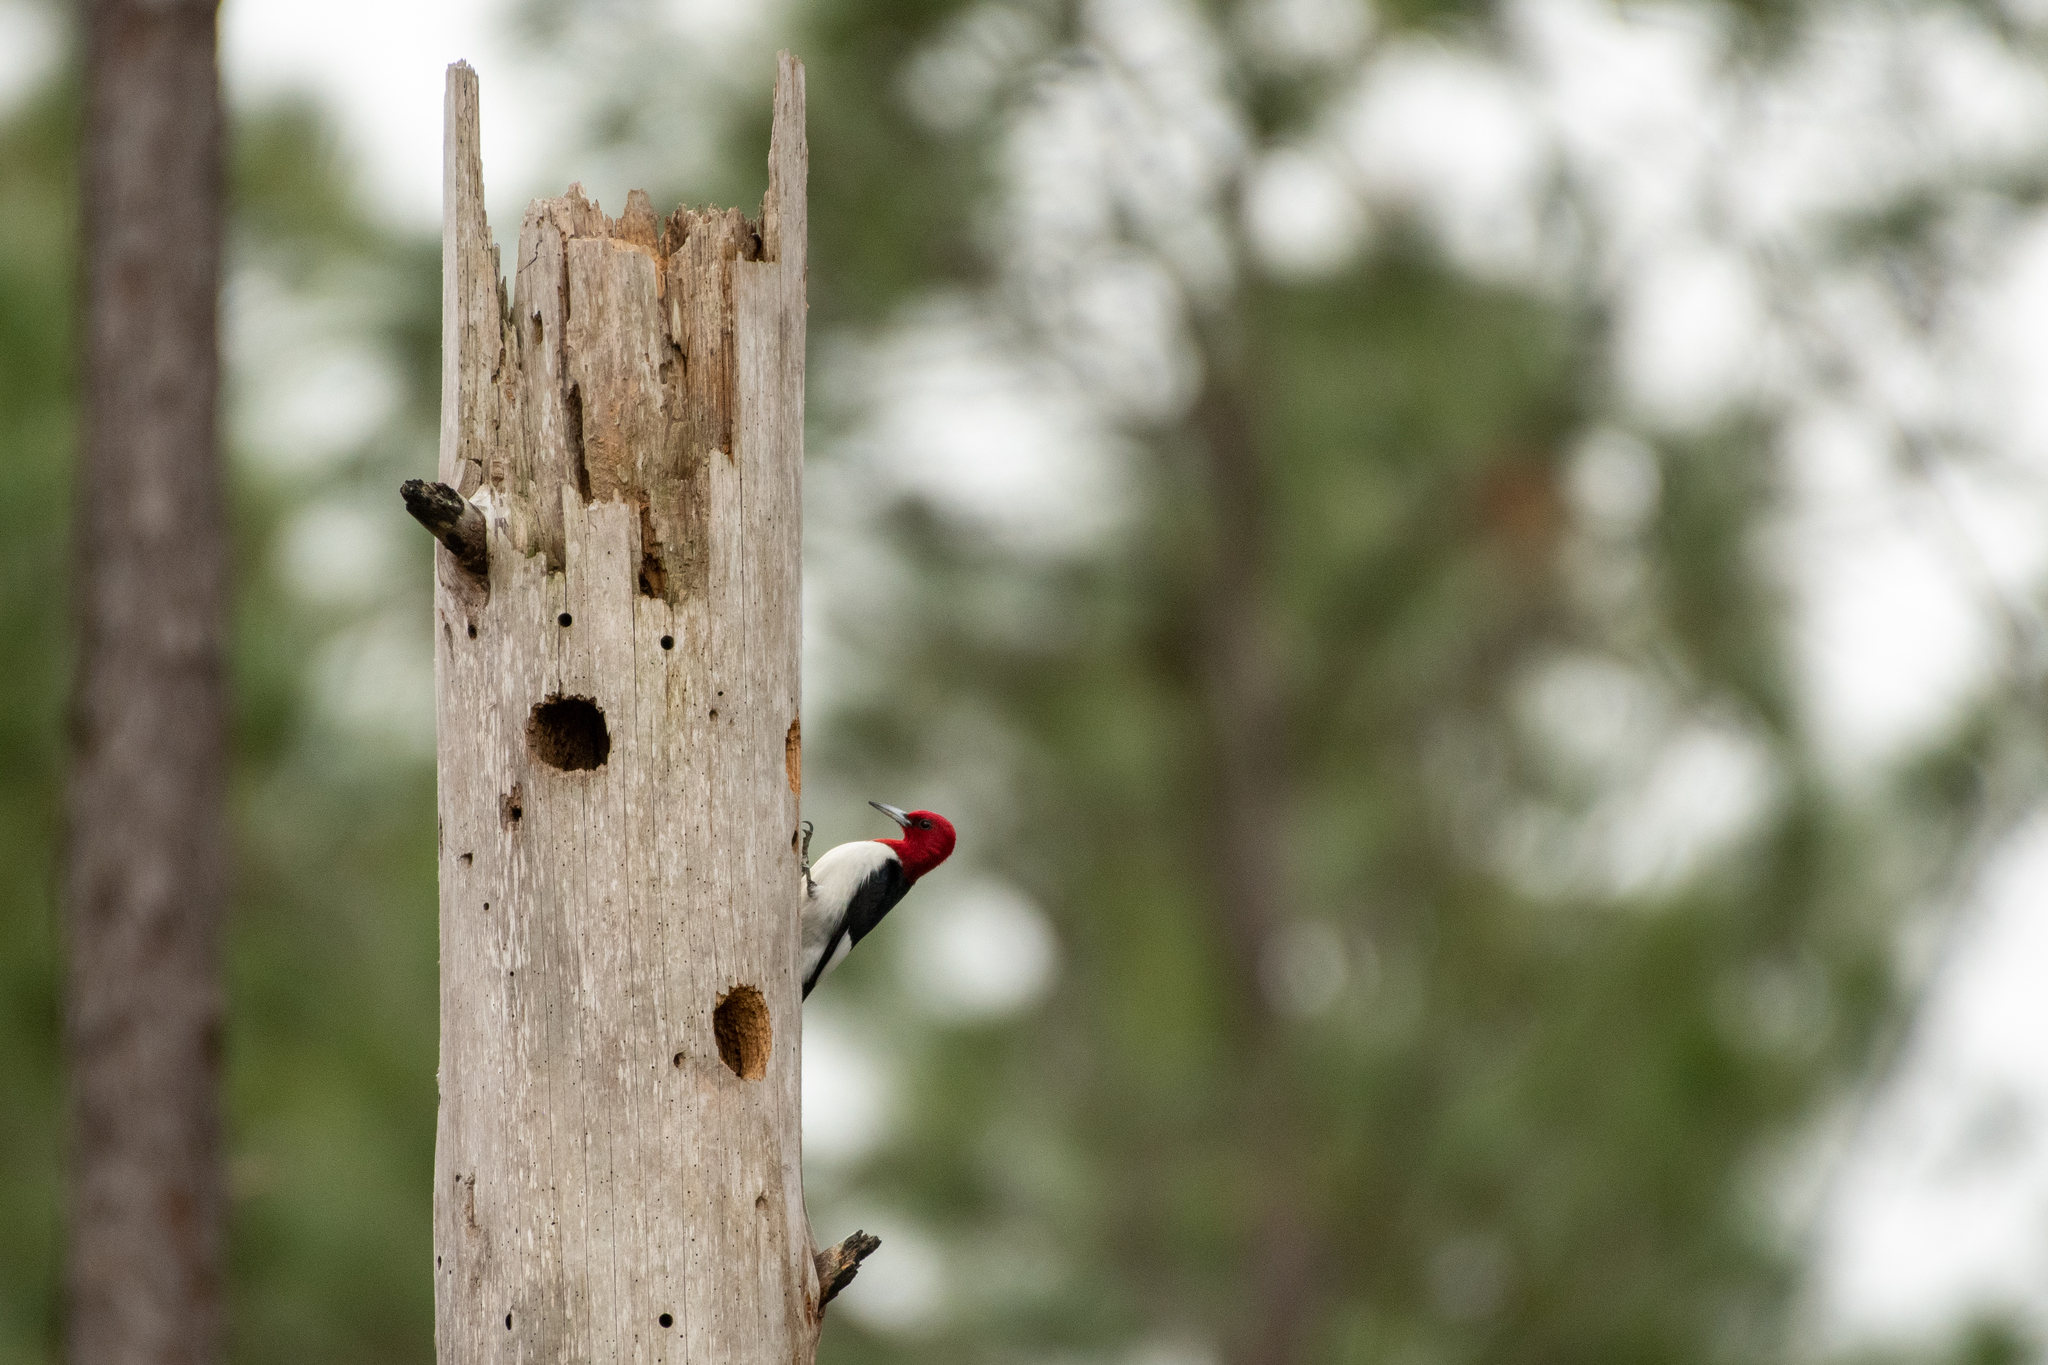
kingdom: Animalia
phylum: Chordata
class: Aves
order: Piciformes
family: Picidae
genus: Melanerpes
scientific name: Melanerpes erythrocephalus
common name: Red-headed woodpecker
